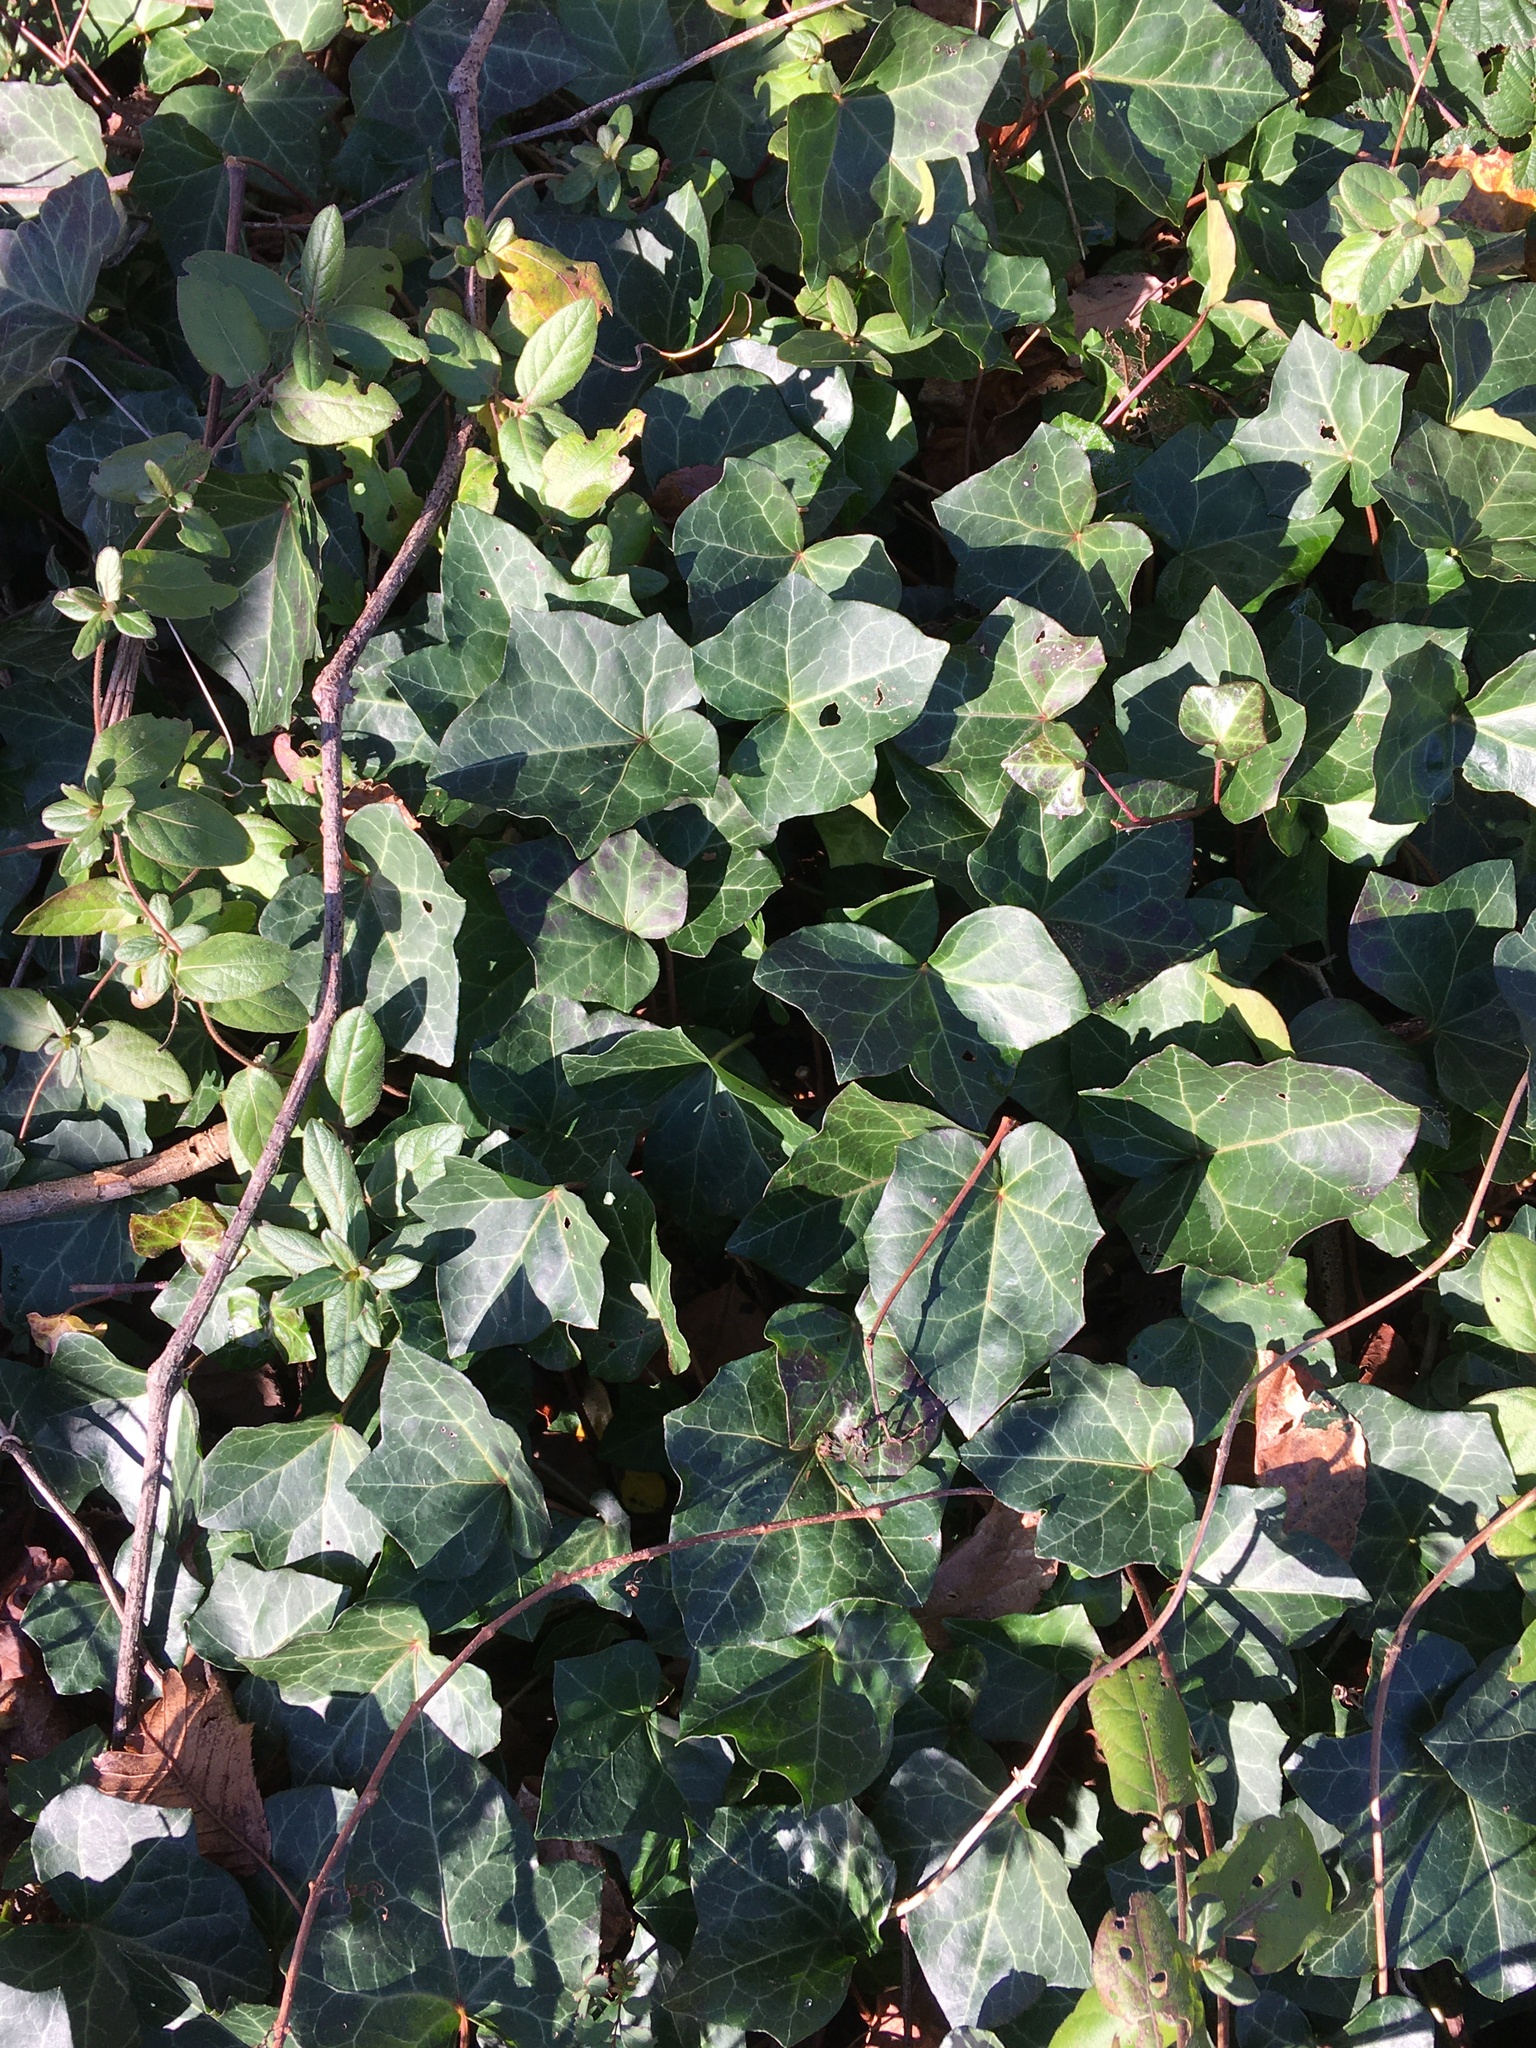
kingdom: Plantae
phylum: Tracheophyta
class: Magnoliopsida
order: Apiales
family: Araliaceae
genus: Hedera
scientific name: Hedera helix
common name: Ivy
